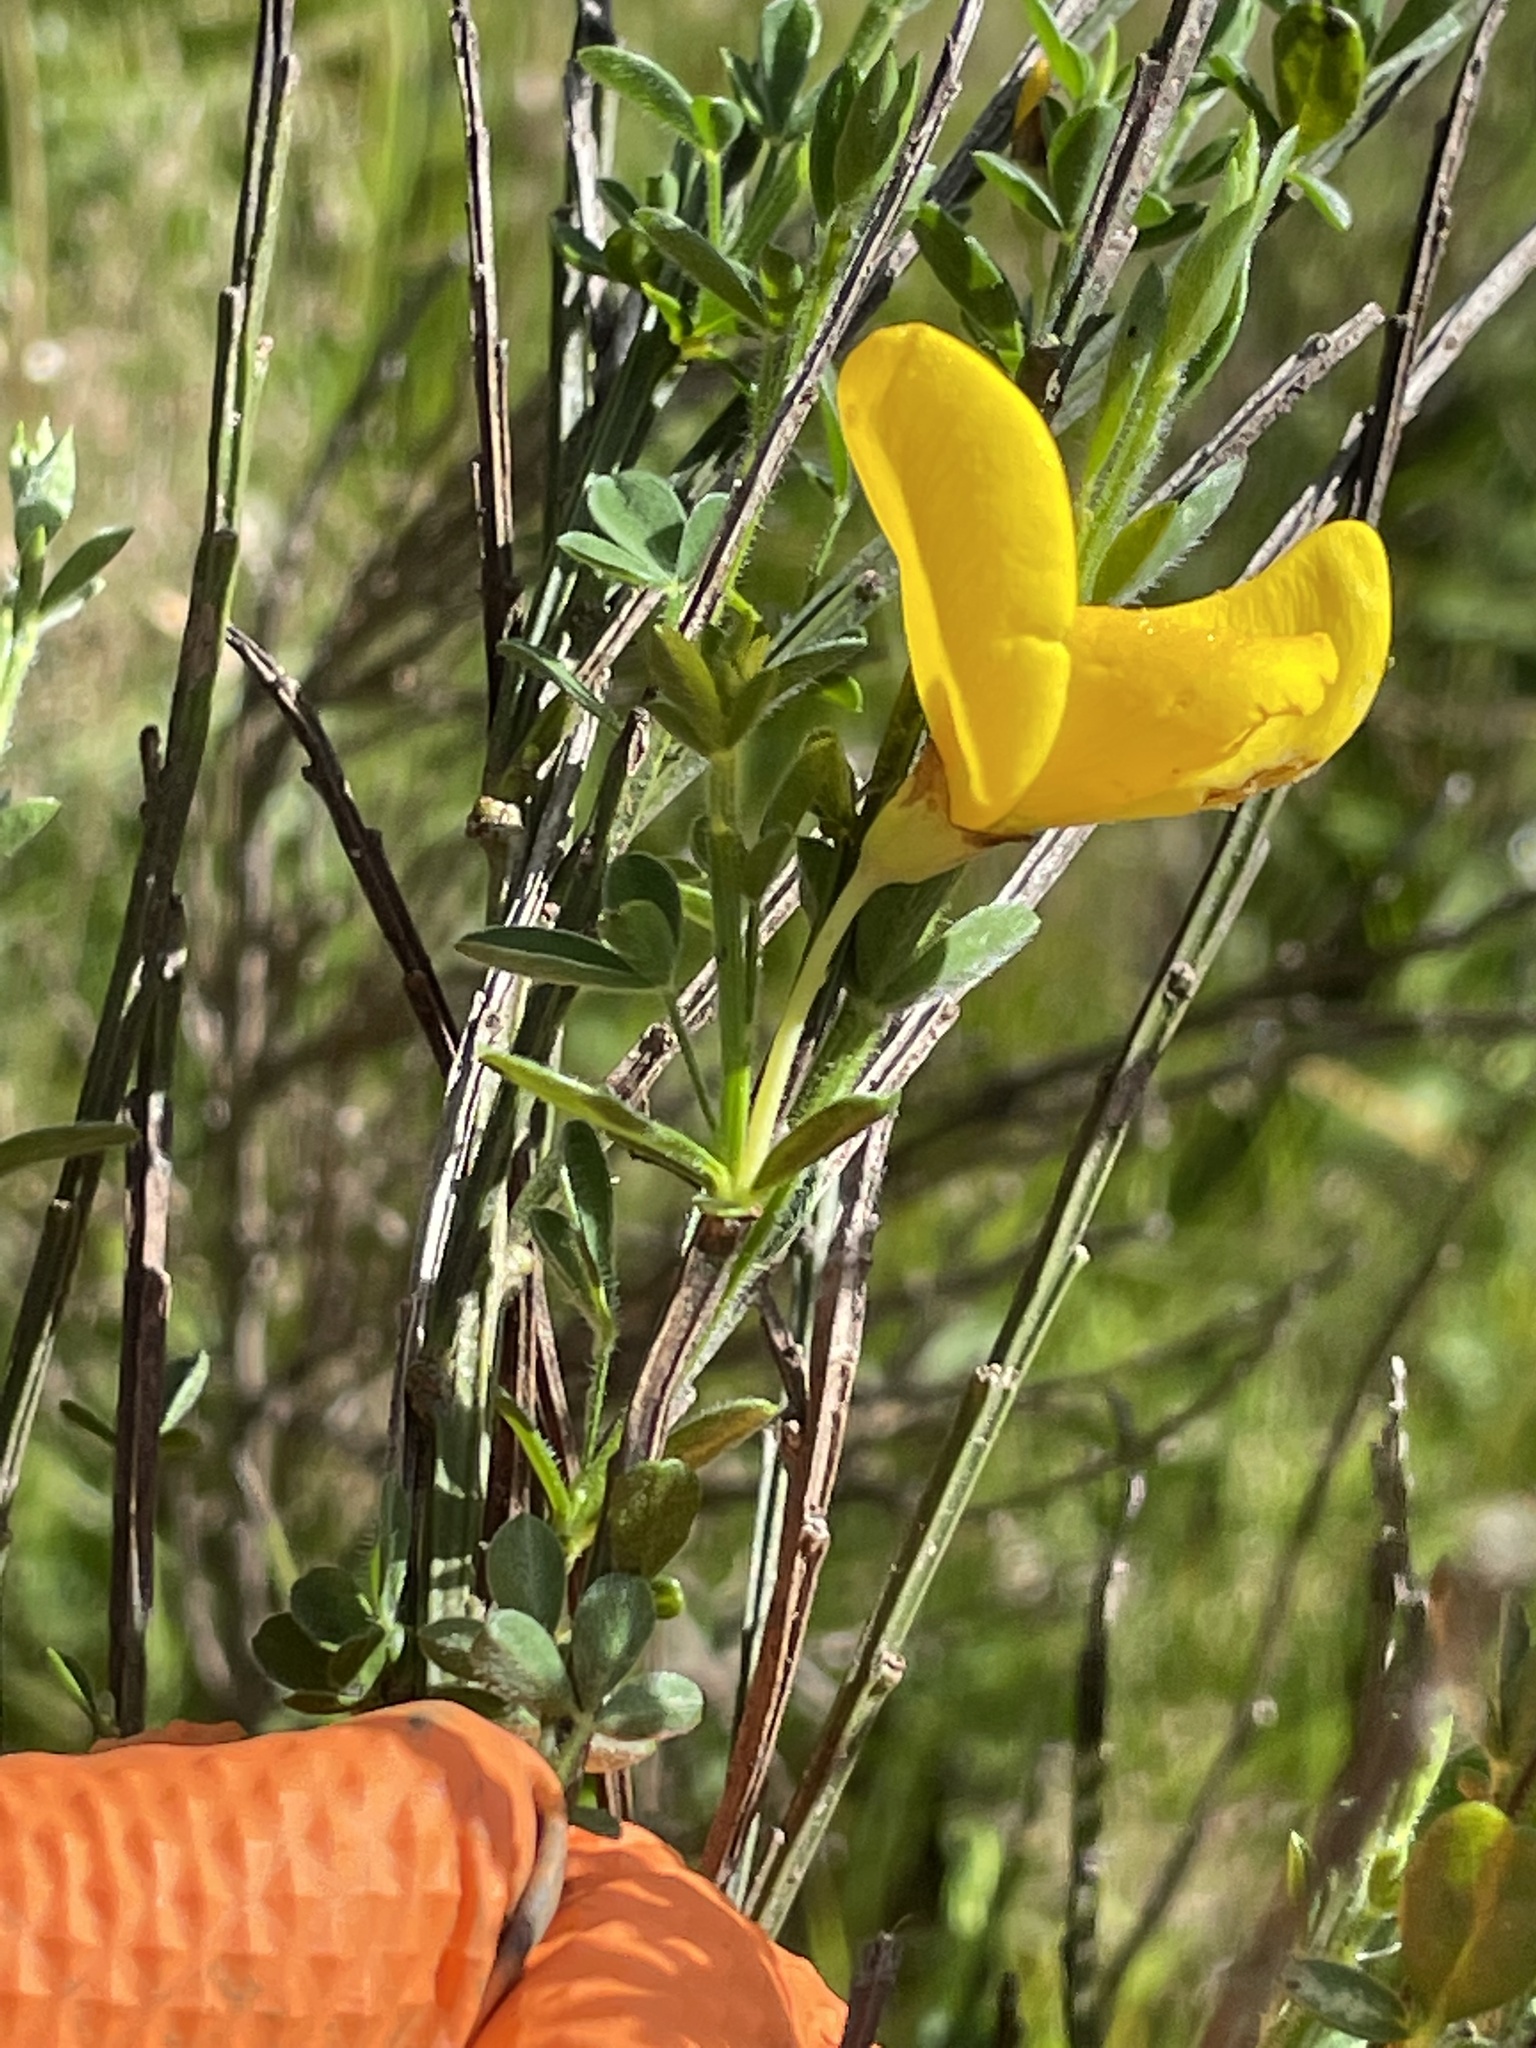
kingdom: Plantae
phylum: Tracheophyta
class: Magnoliopsida
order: Fabales
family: Fabaceae
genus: Cytisus
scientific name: Cytisus scoparius
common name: Scotch broom
